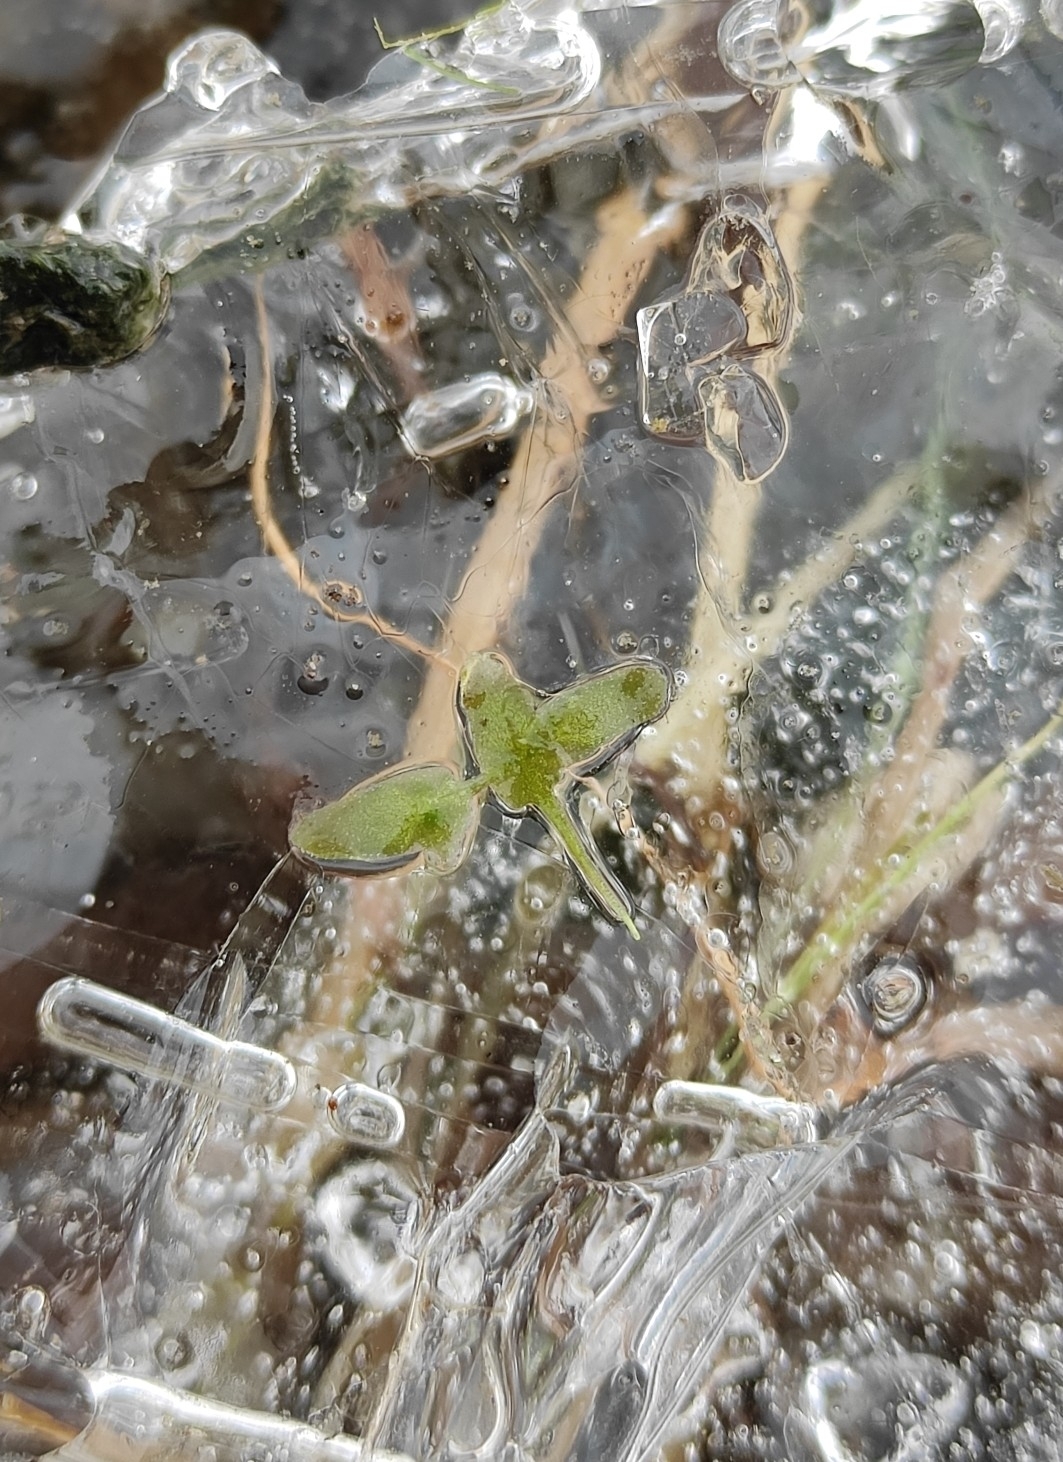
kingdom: Plantae
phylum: Tracheophyta
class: Liliopsida
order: Alismatales
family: Araceae
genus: Lemna
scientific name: Lemna trisulca
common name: Ivy-leaved duckweed
